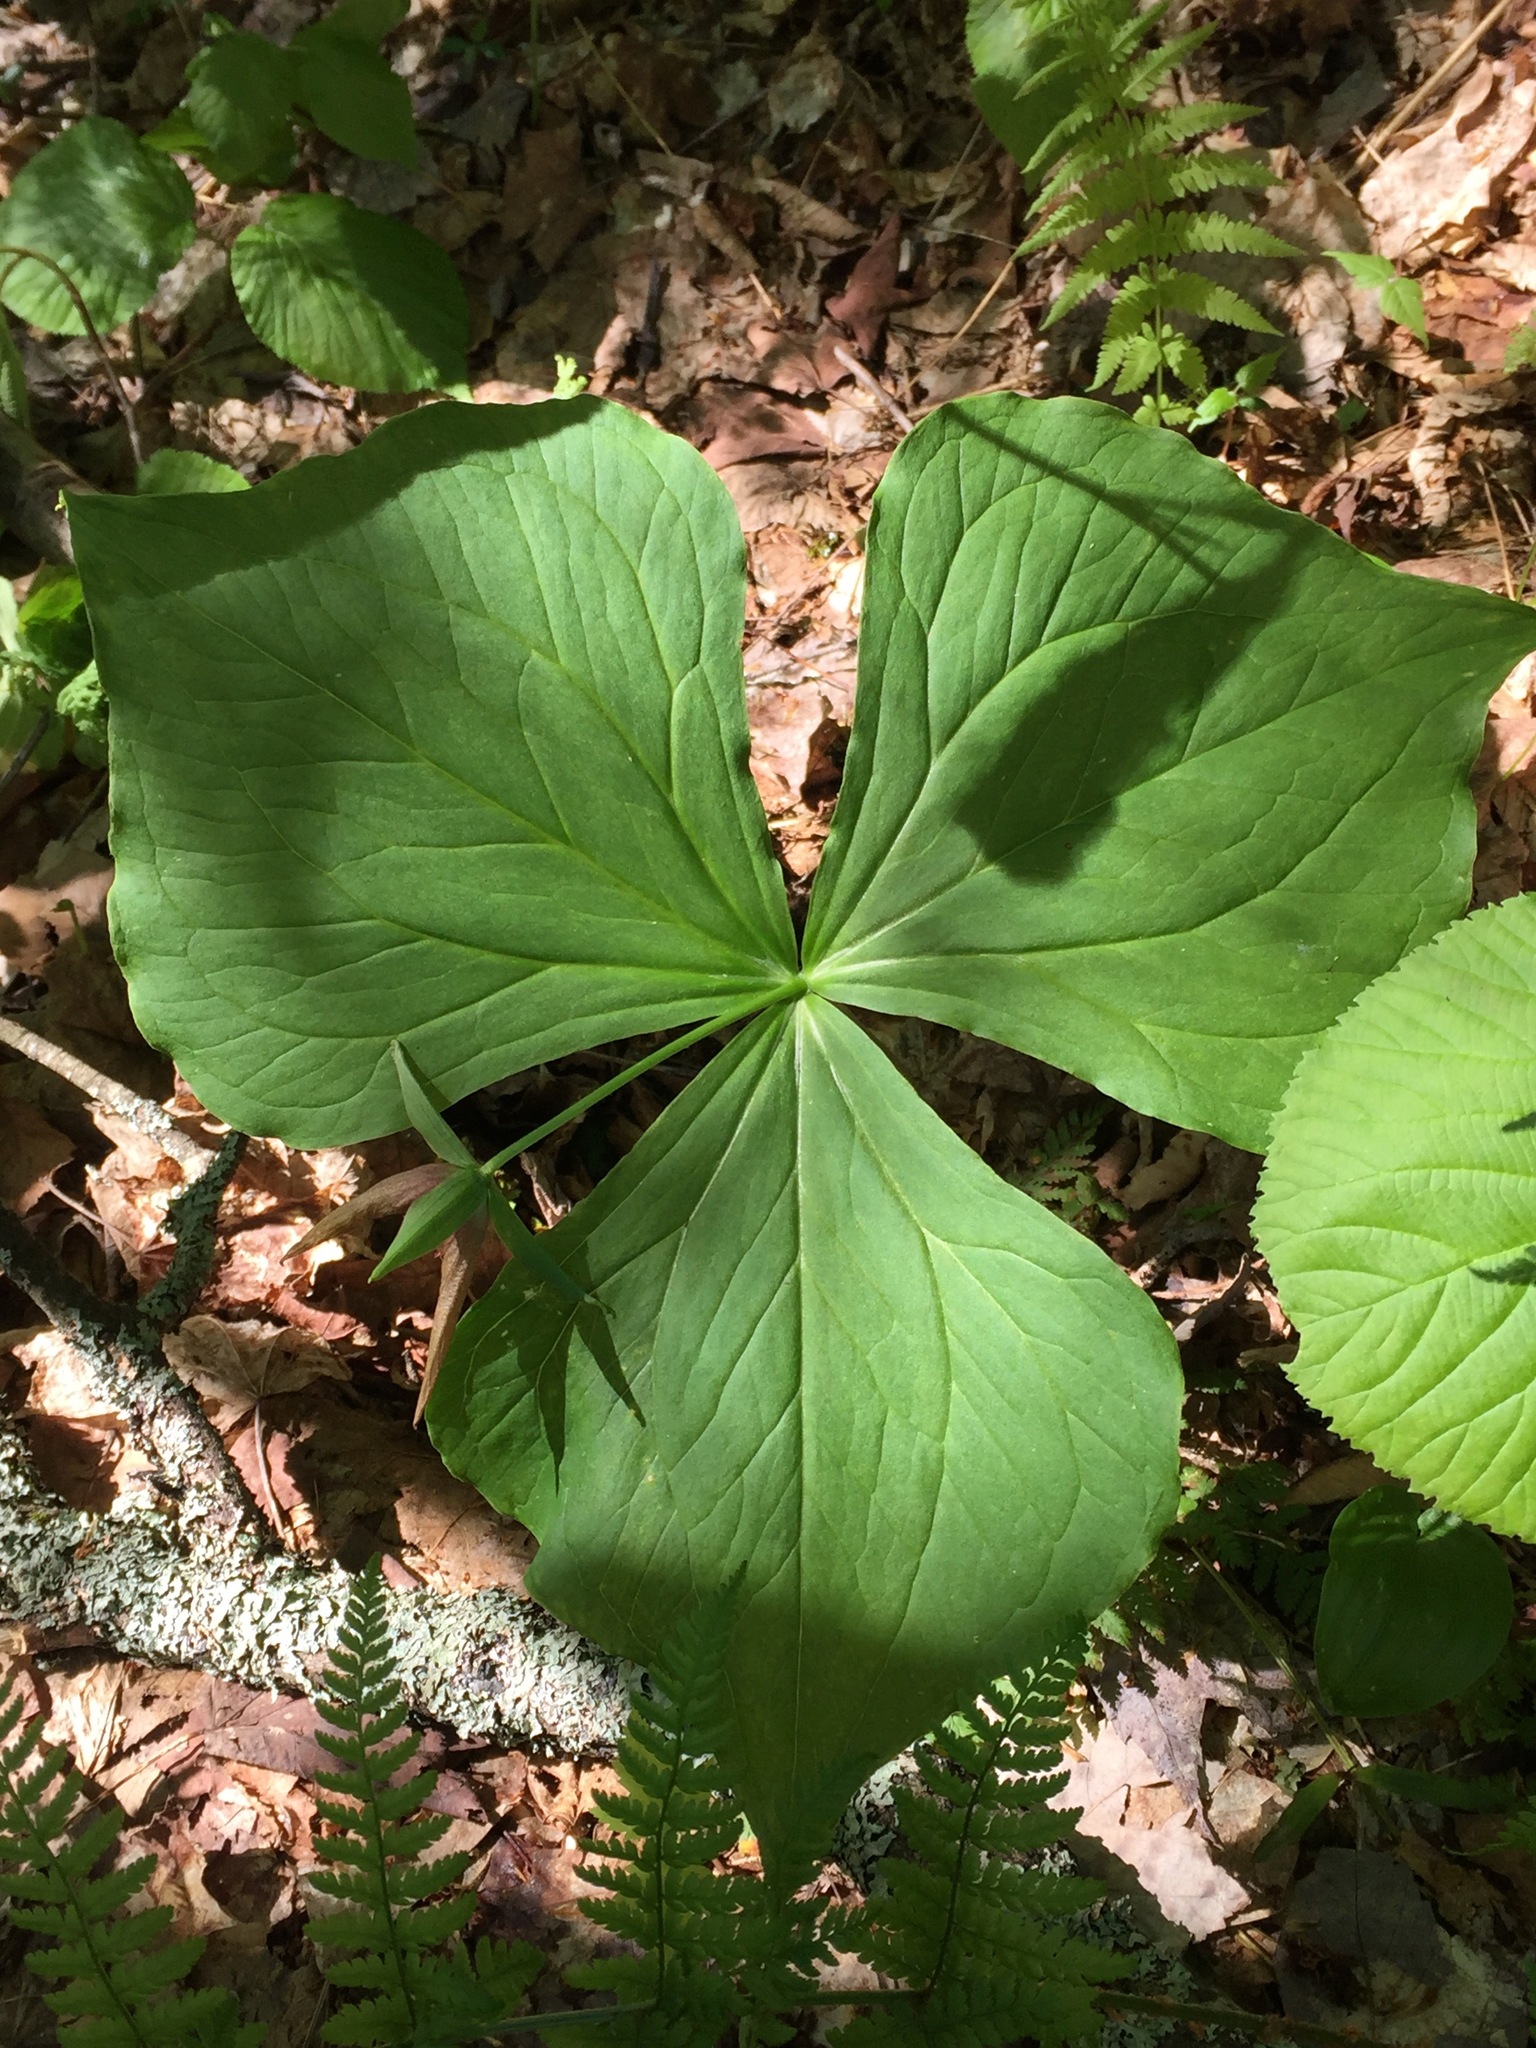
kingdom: Plantae
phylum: Tracheophyta
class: Liliopsida
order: Liliales
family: Melanthiaceae
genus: Trillium
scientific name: Trillium erectum
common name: Purple trillium
